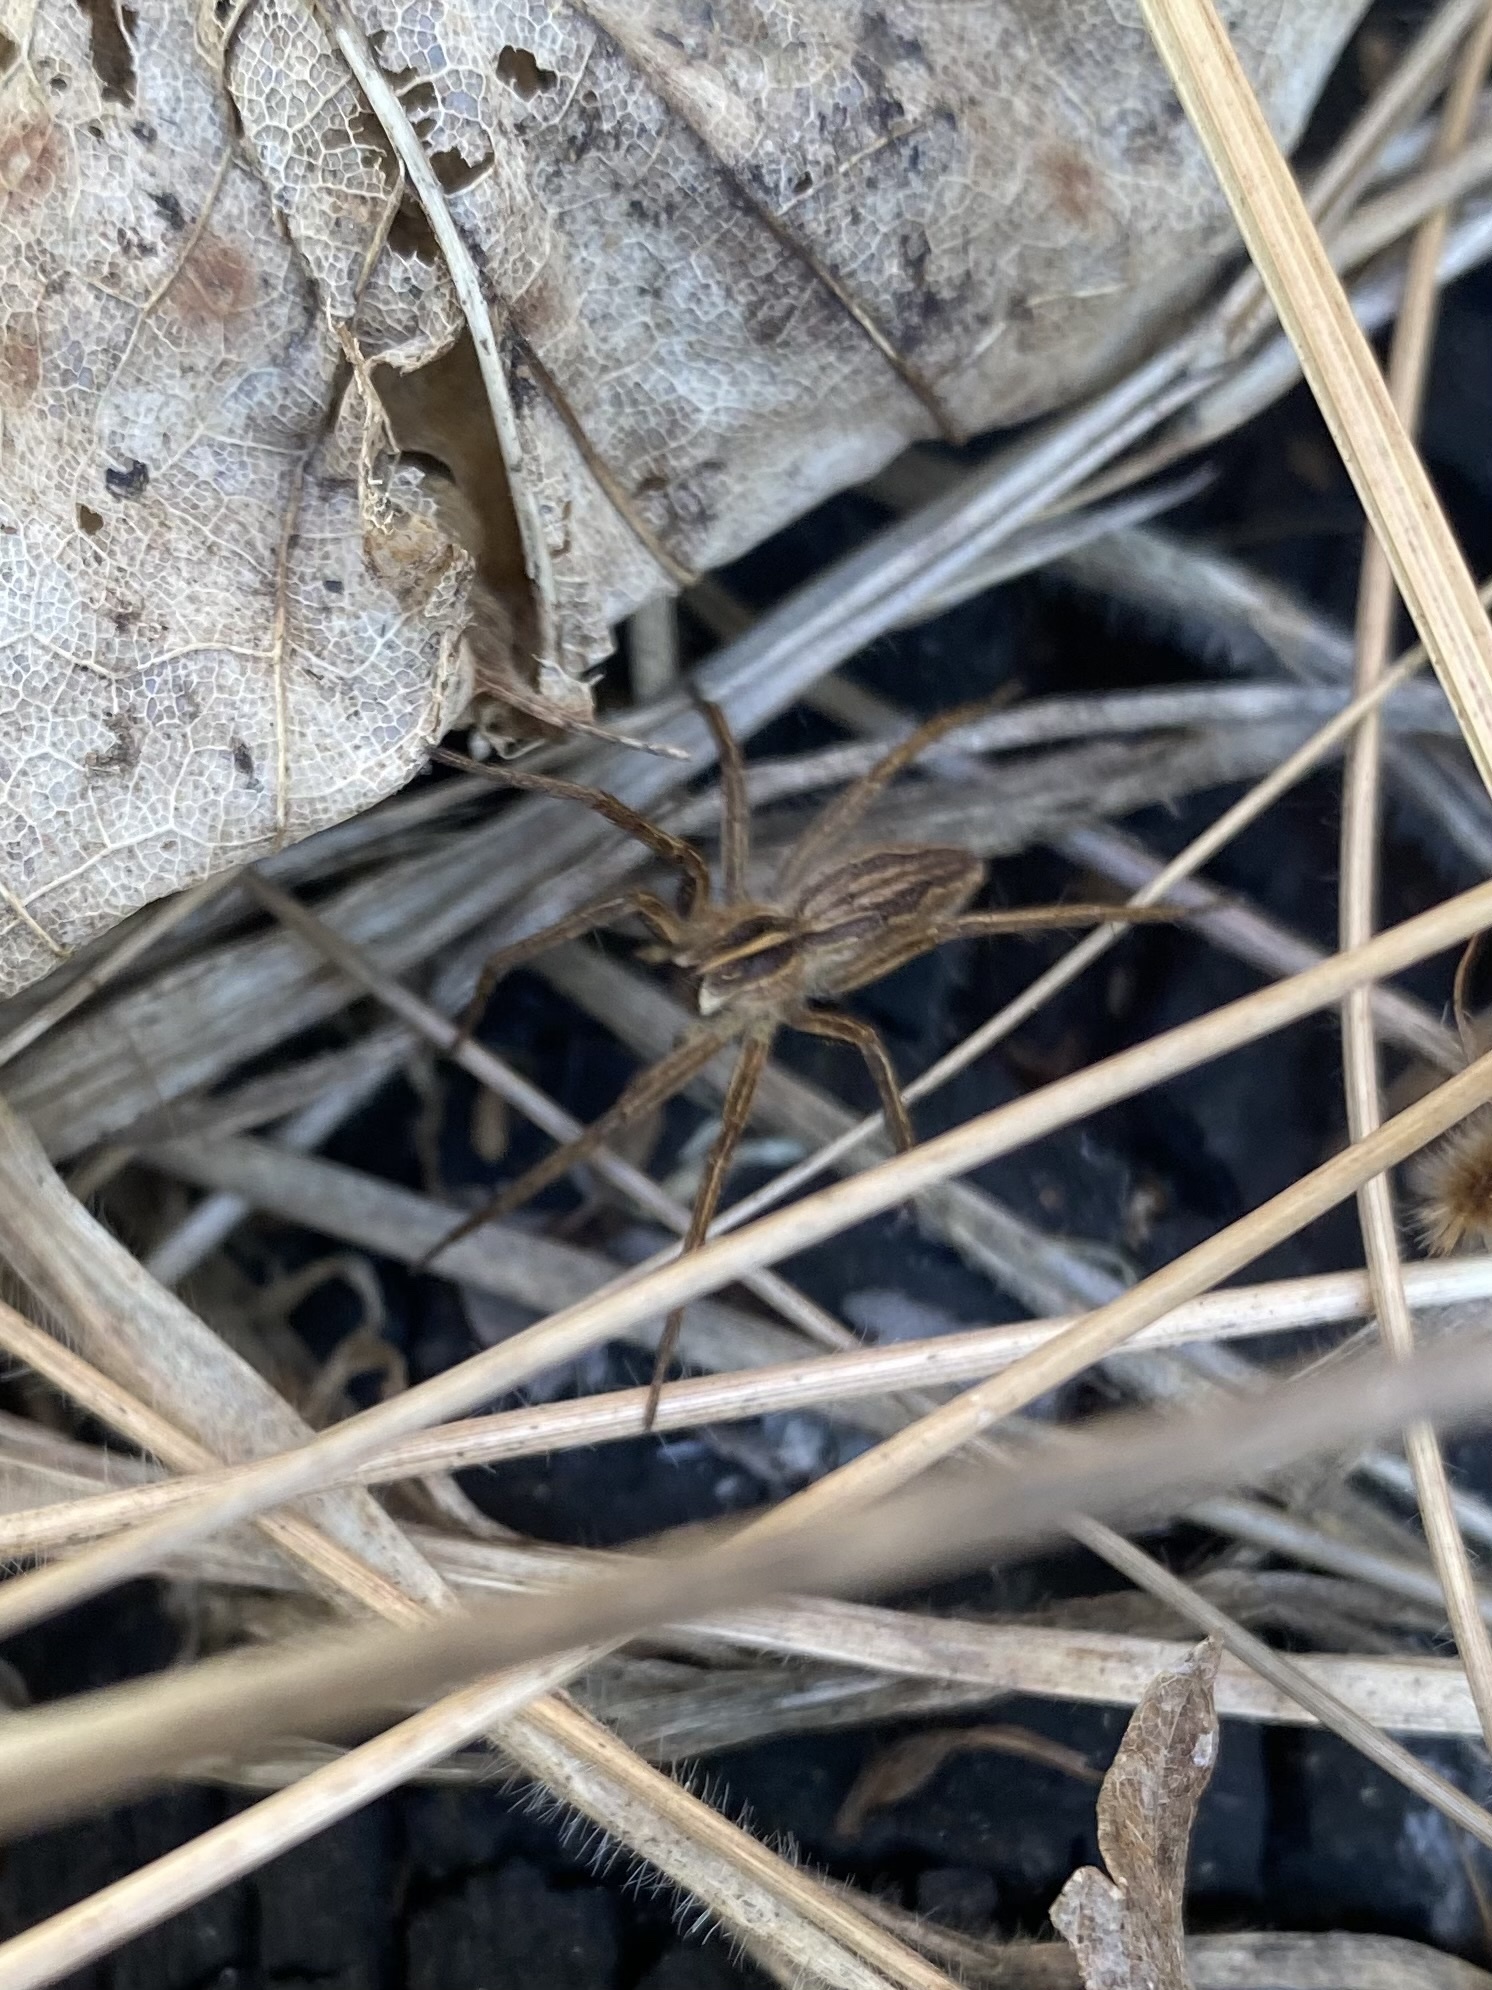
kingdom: Animalia
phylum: Arthropoda
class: Arachnida
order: Araneae
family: Pisauridae
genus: Pisaura
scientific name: Pisaura
